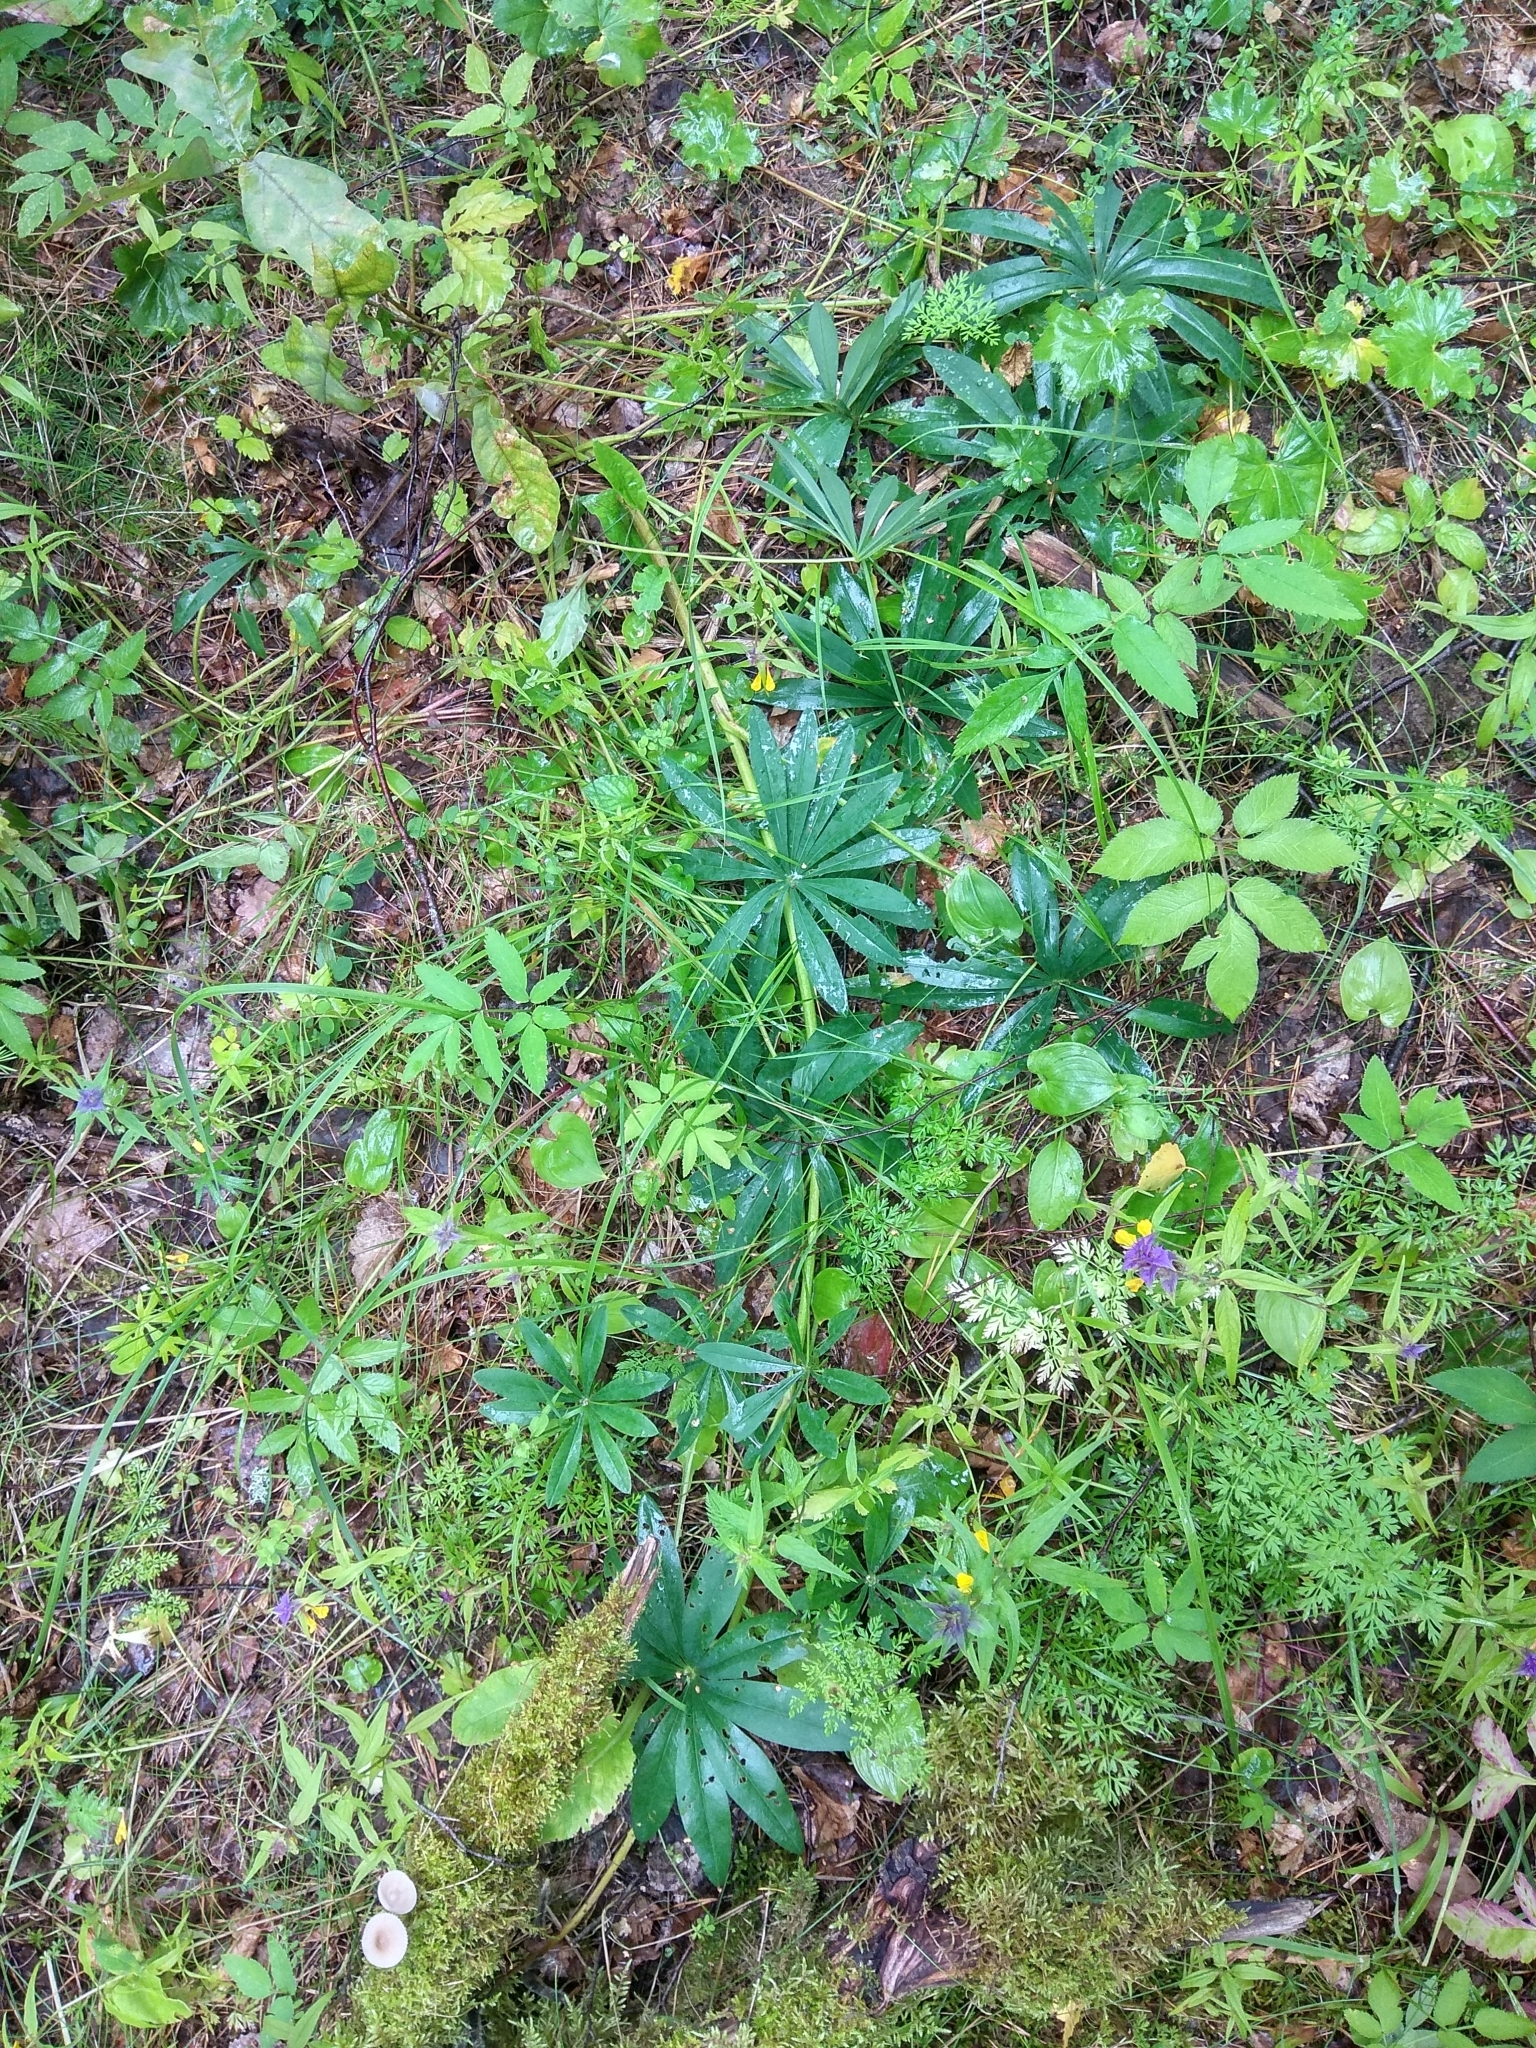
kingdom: Plantae
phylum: Tracheophyta
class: Magnoliopsida
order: Fabales
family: Fabaceae
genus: Lupinus
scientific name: Lupinus polyphyllus
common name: Garden lupin
